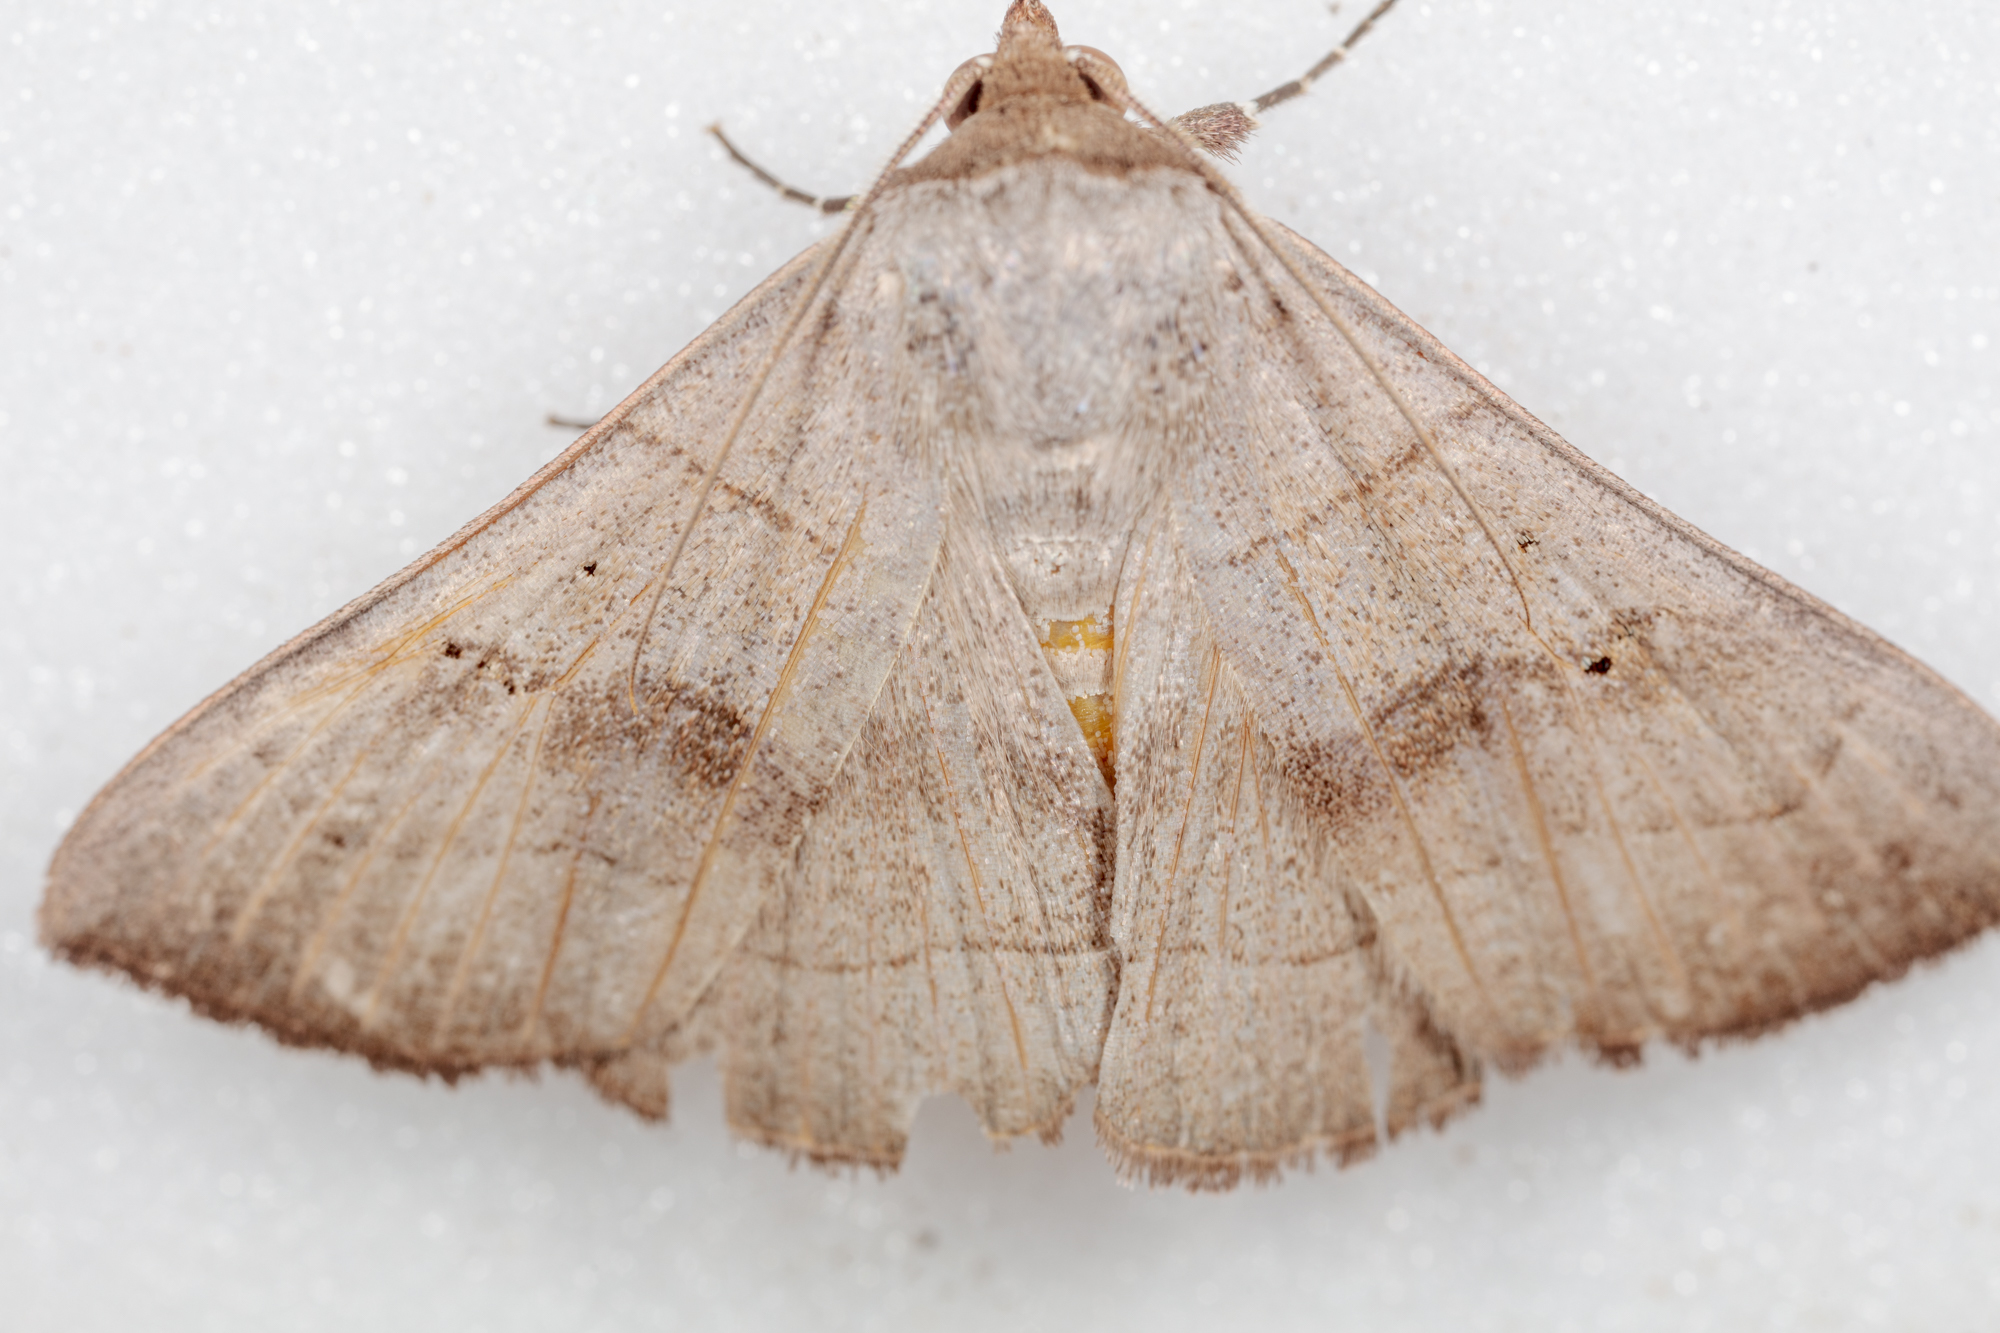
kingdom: Animalia
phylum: Arthropoda
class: Insecta
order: Lepidoptera
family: Erebidae
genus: Panopoda
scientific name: Panopoda carneicosta
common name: Brown panopoda moth
